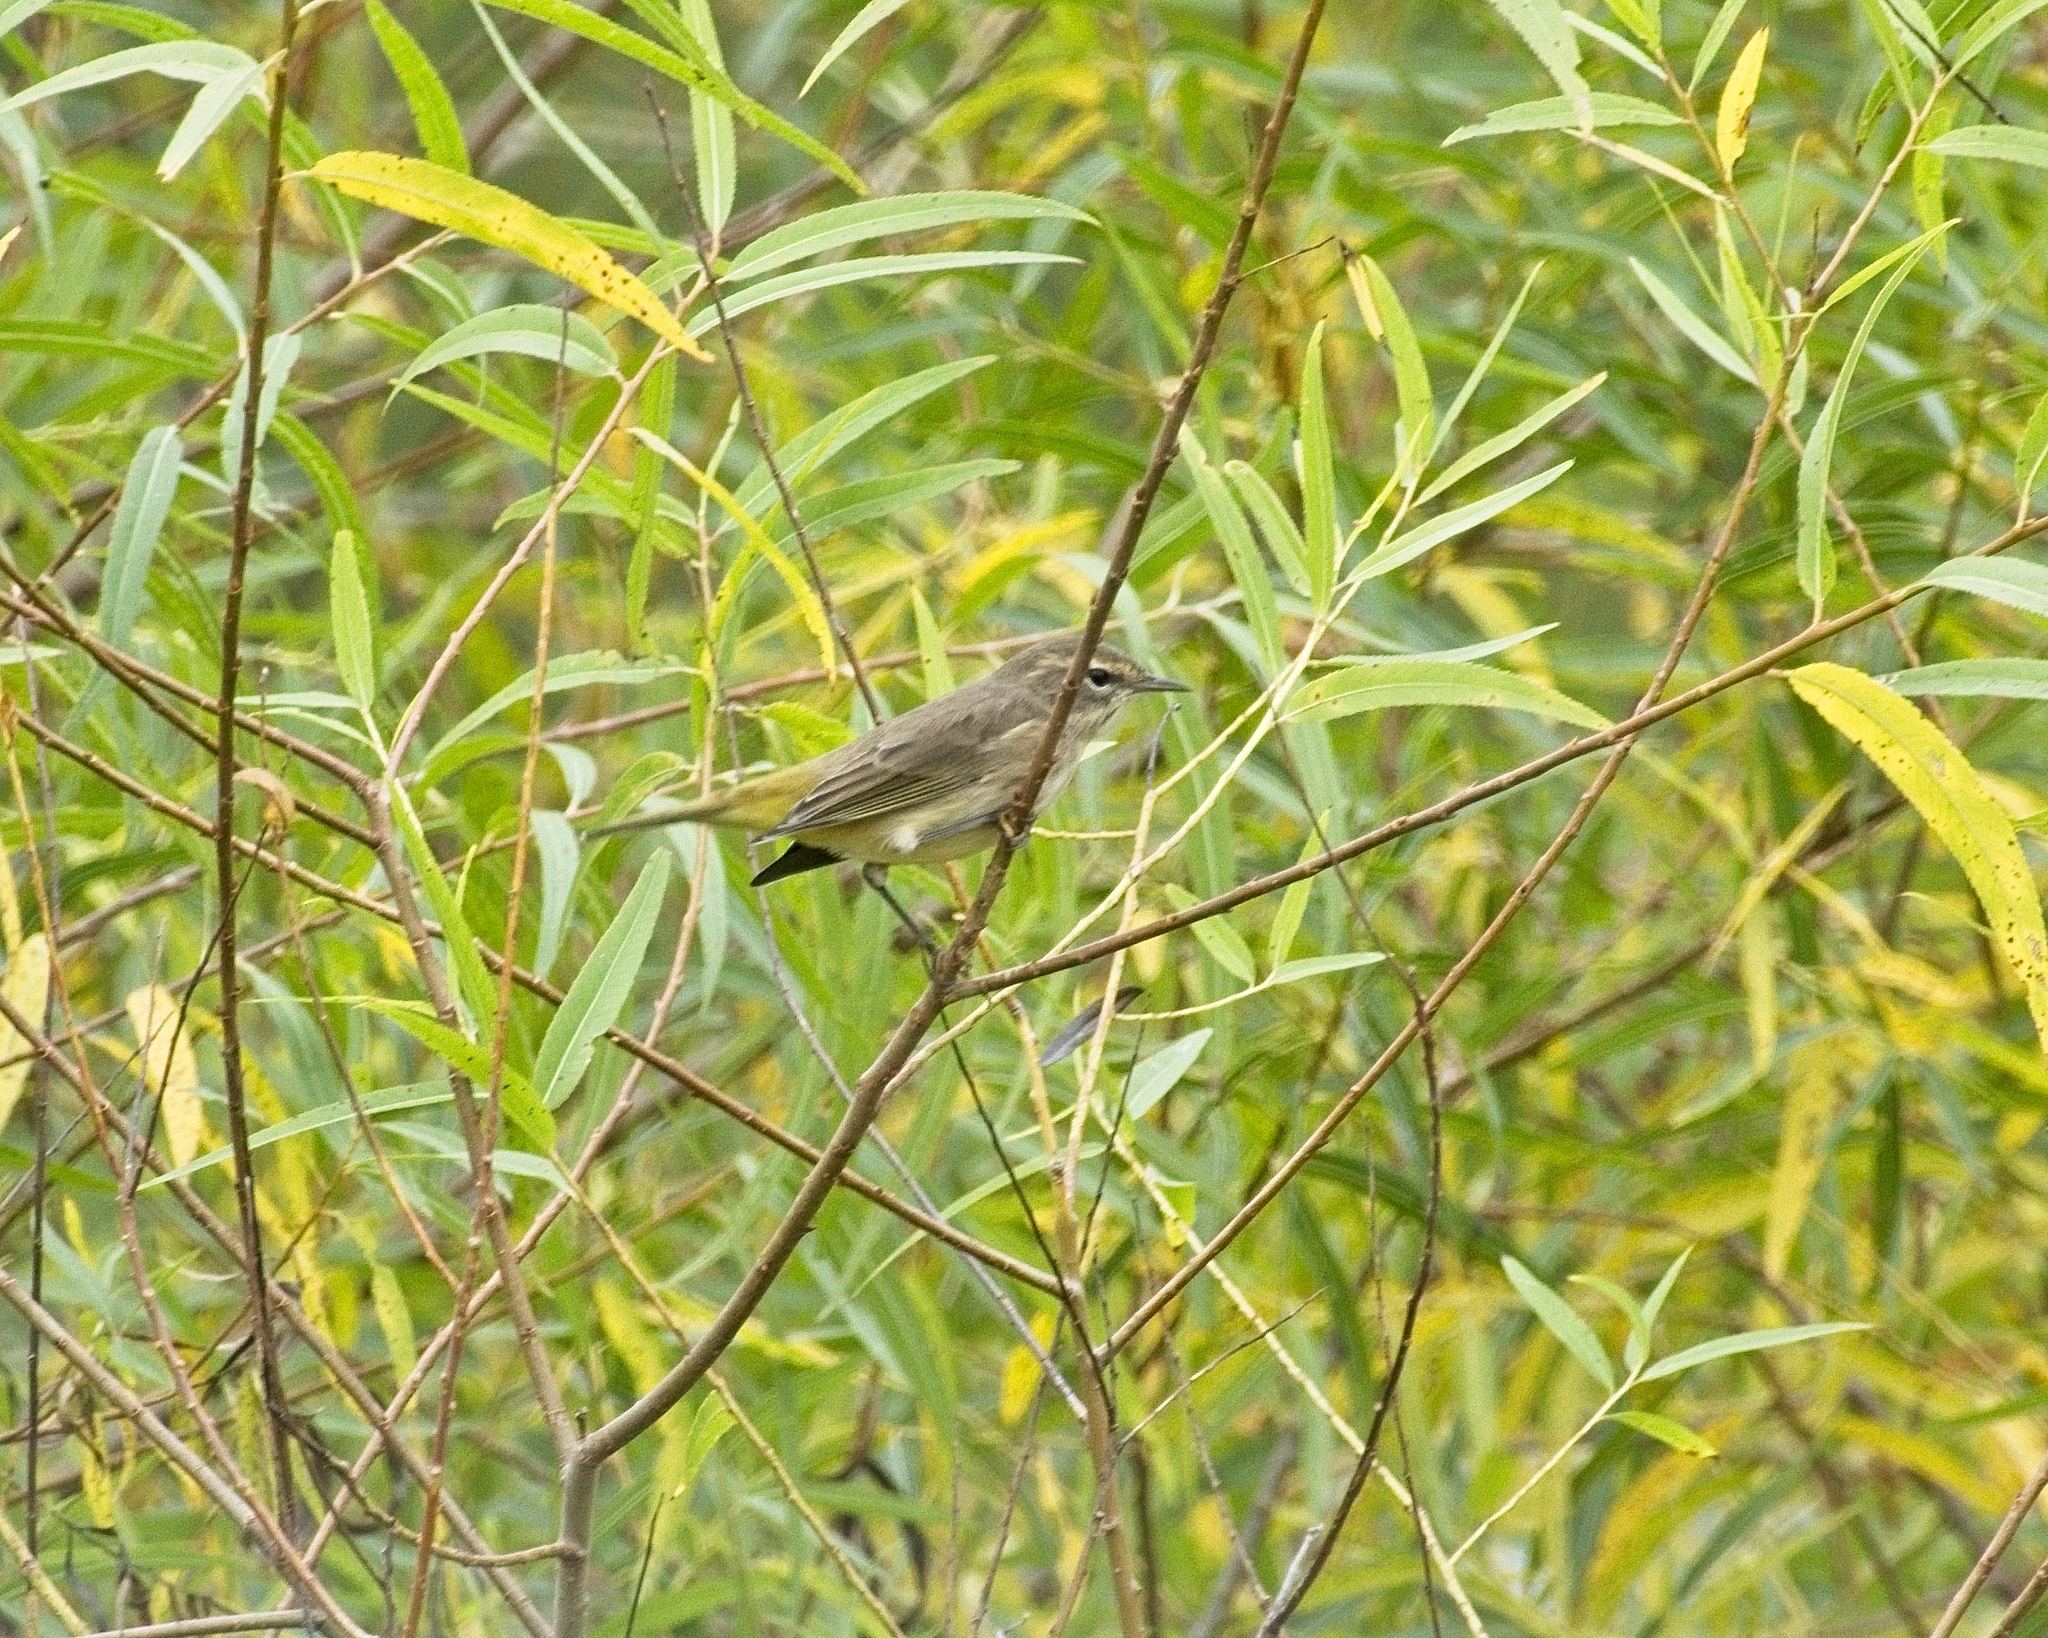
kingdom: Animalia
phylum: Chordata
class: Aves
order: Passeriformes
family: Parulidae
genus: Setophaga
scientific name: Setophaga palmarum
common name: Palm warbler
